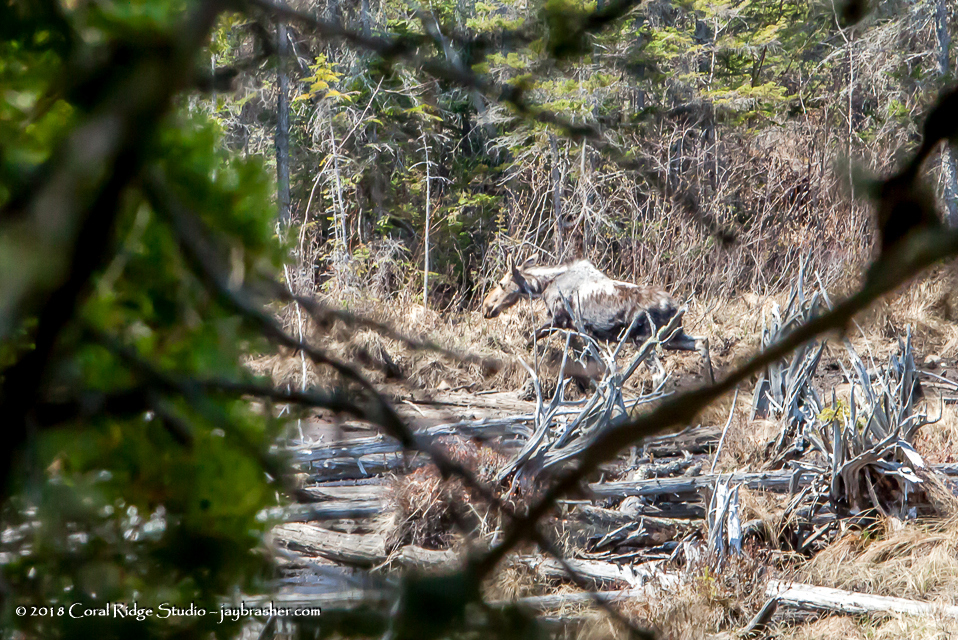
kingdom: Animalia
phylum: Chordata
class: Mammalia
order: Artiodactyla
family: Cervidae
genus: Alces
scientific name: Alces alces
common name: Moose
